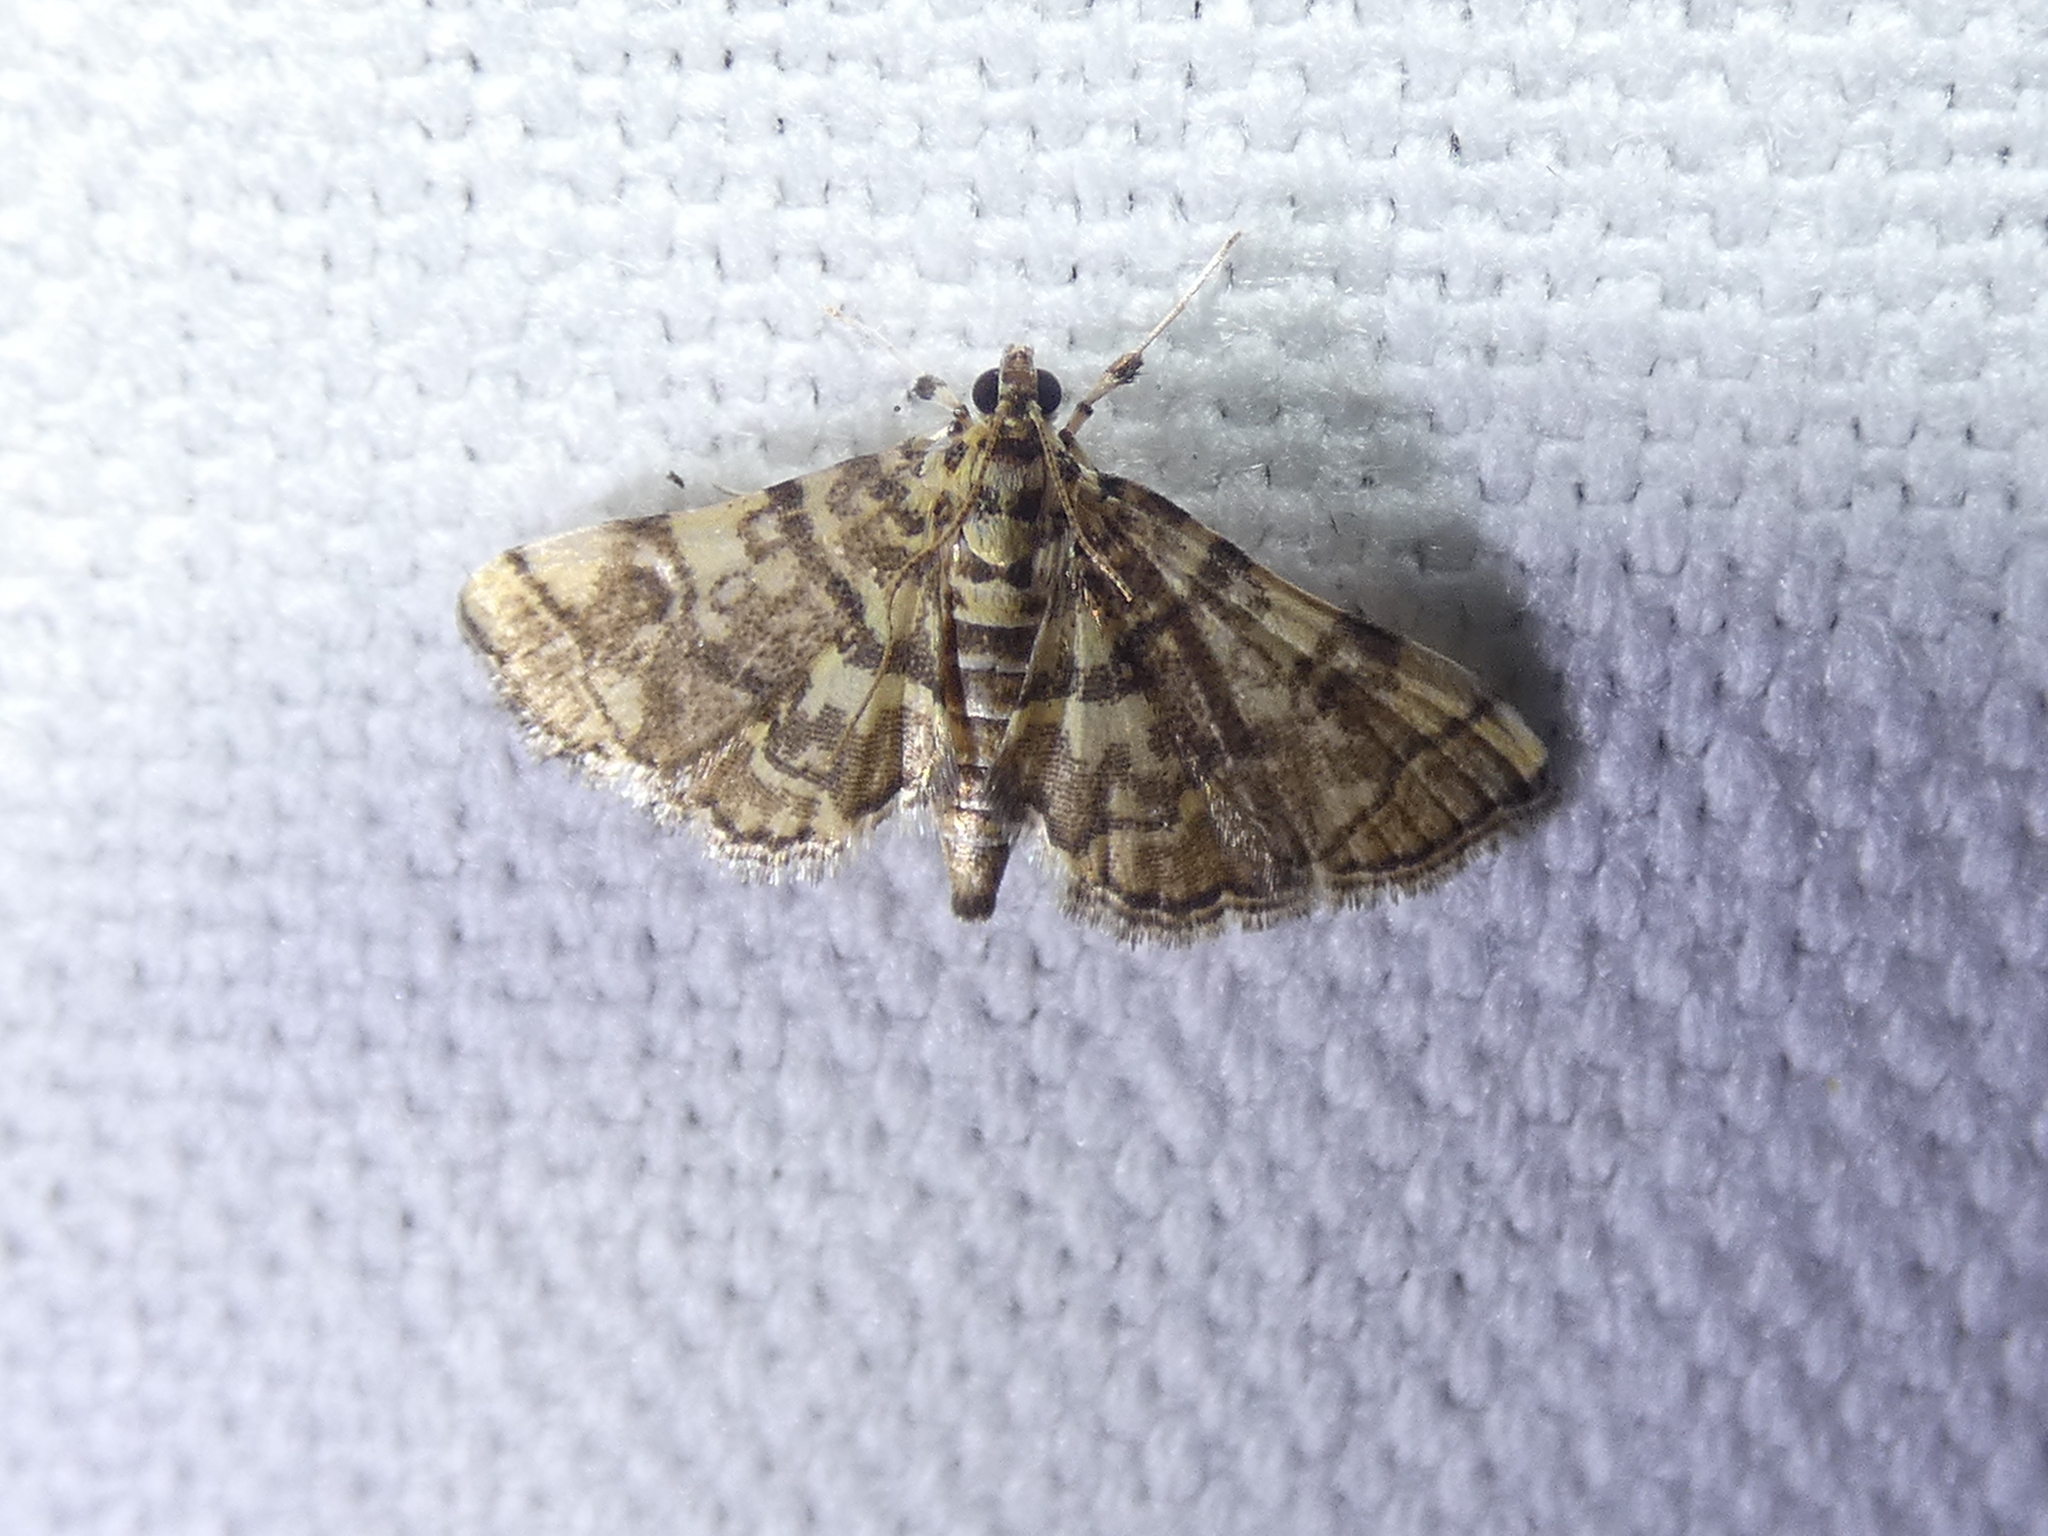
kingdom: Animalia
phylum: Arthropoda
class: Insecta
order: Lepidoptera
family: Crambidae
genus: Apogeshna
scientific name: Apogeshna stenialis
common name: Checkered apogeshna moth
